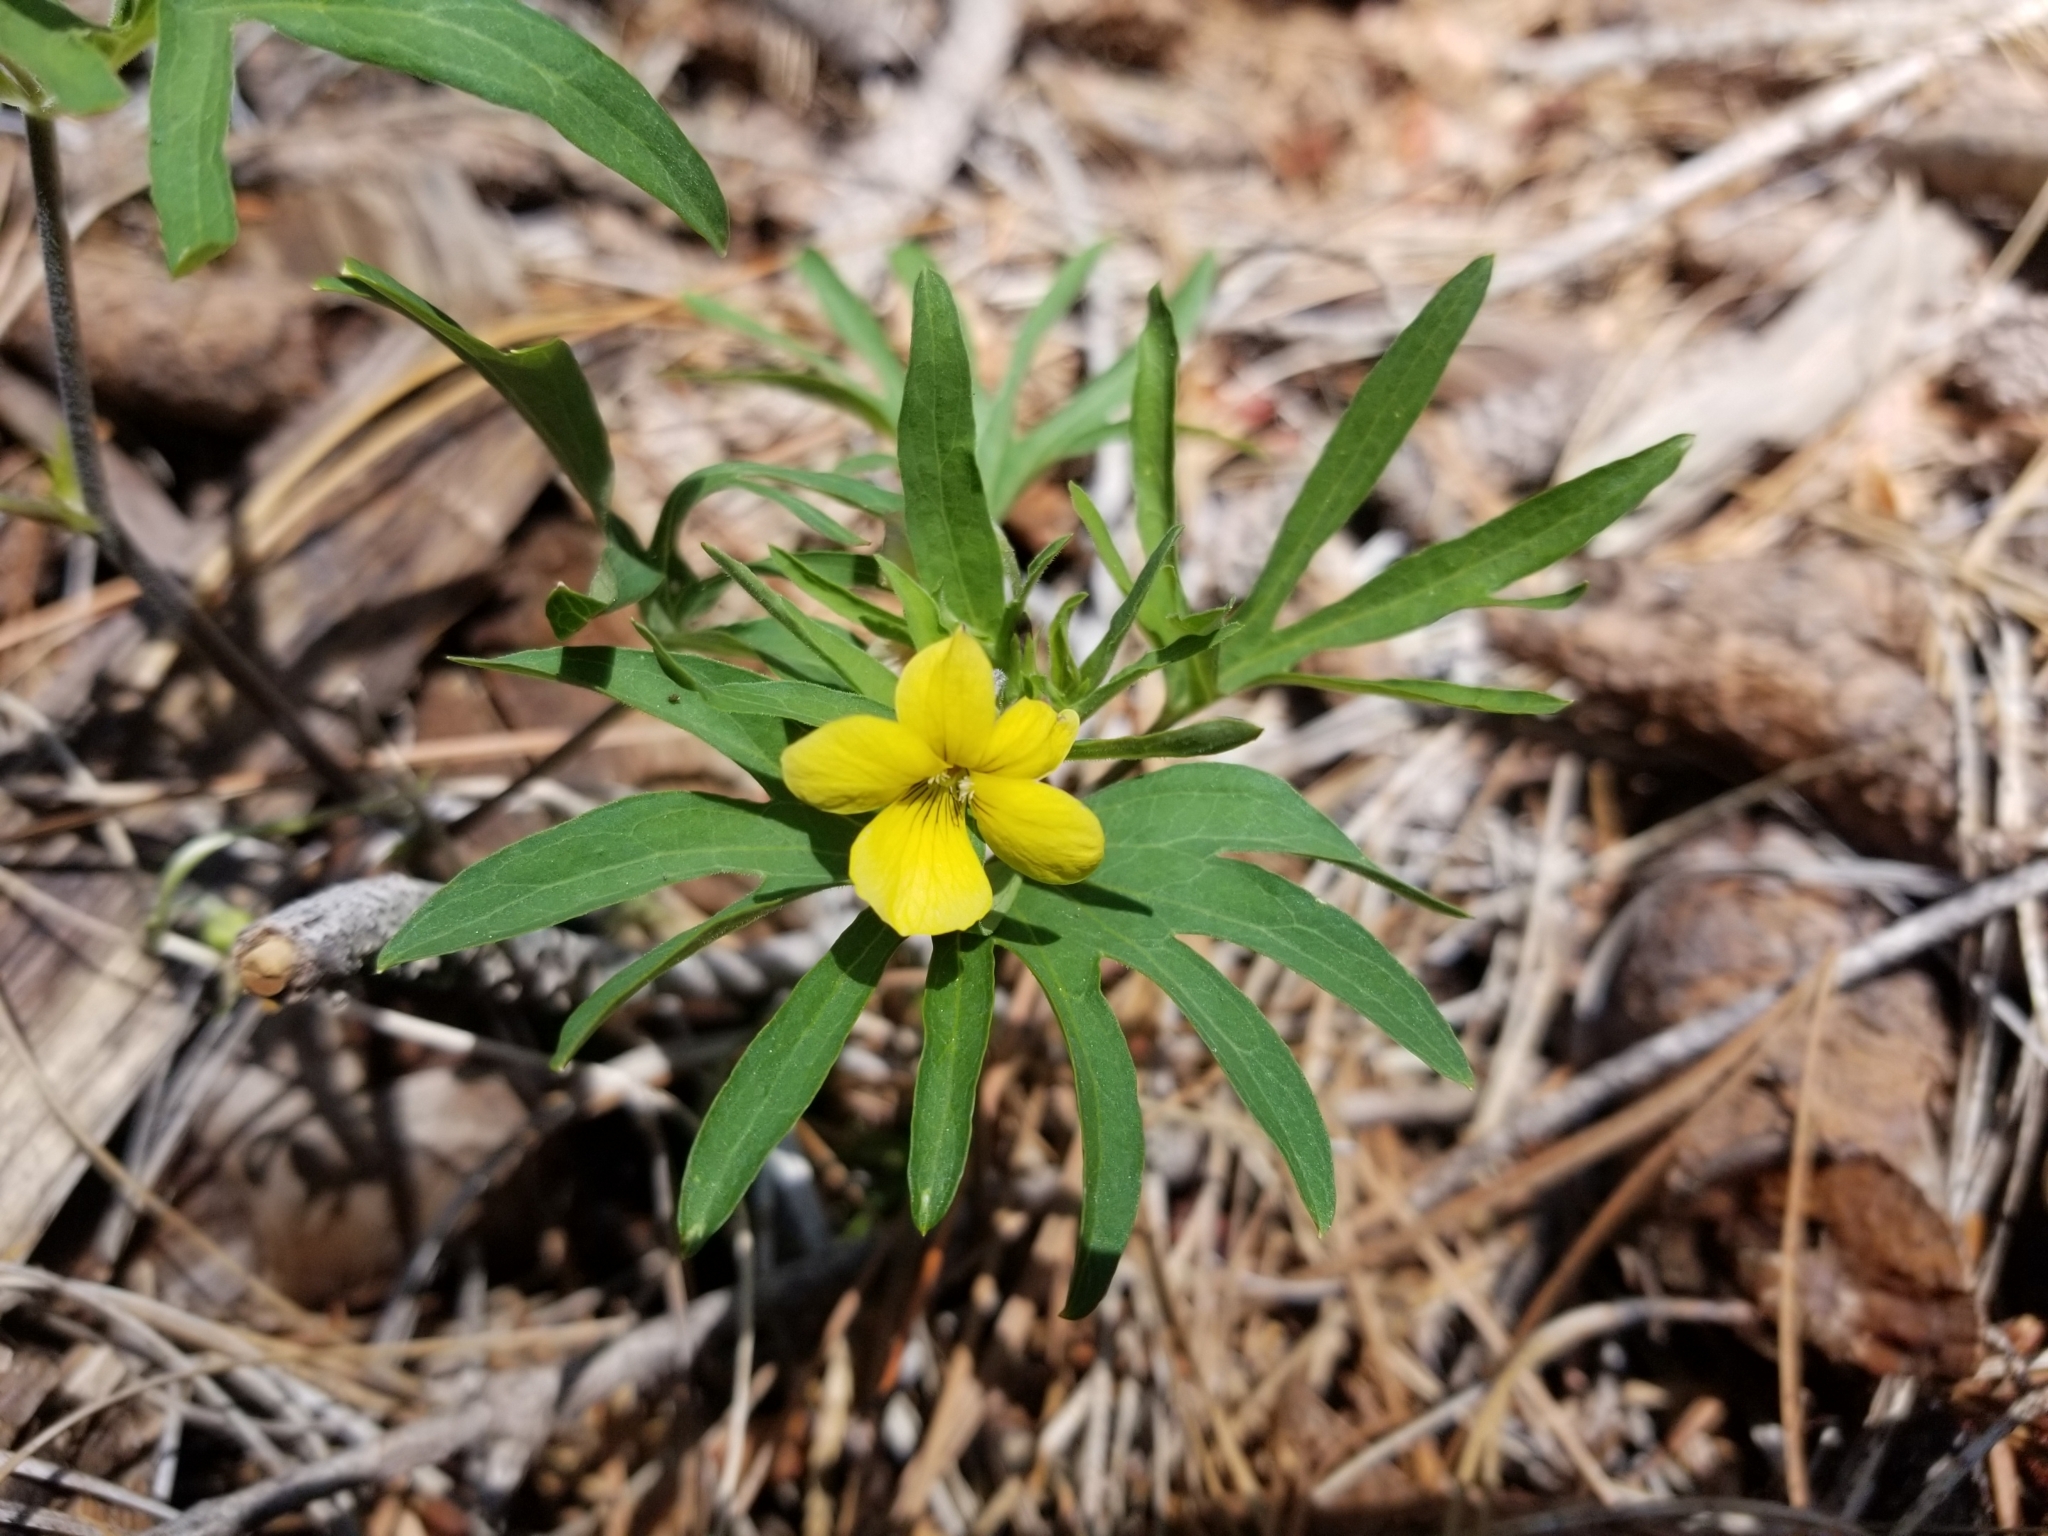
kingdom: Plantae
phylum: Tracheophyta
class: Magnoliopsida
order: Malpighiales
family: Violaceae
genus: Viola
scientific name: Viola lobata
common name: Pine violet
